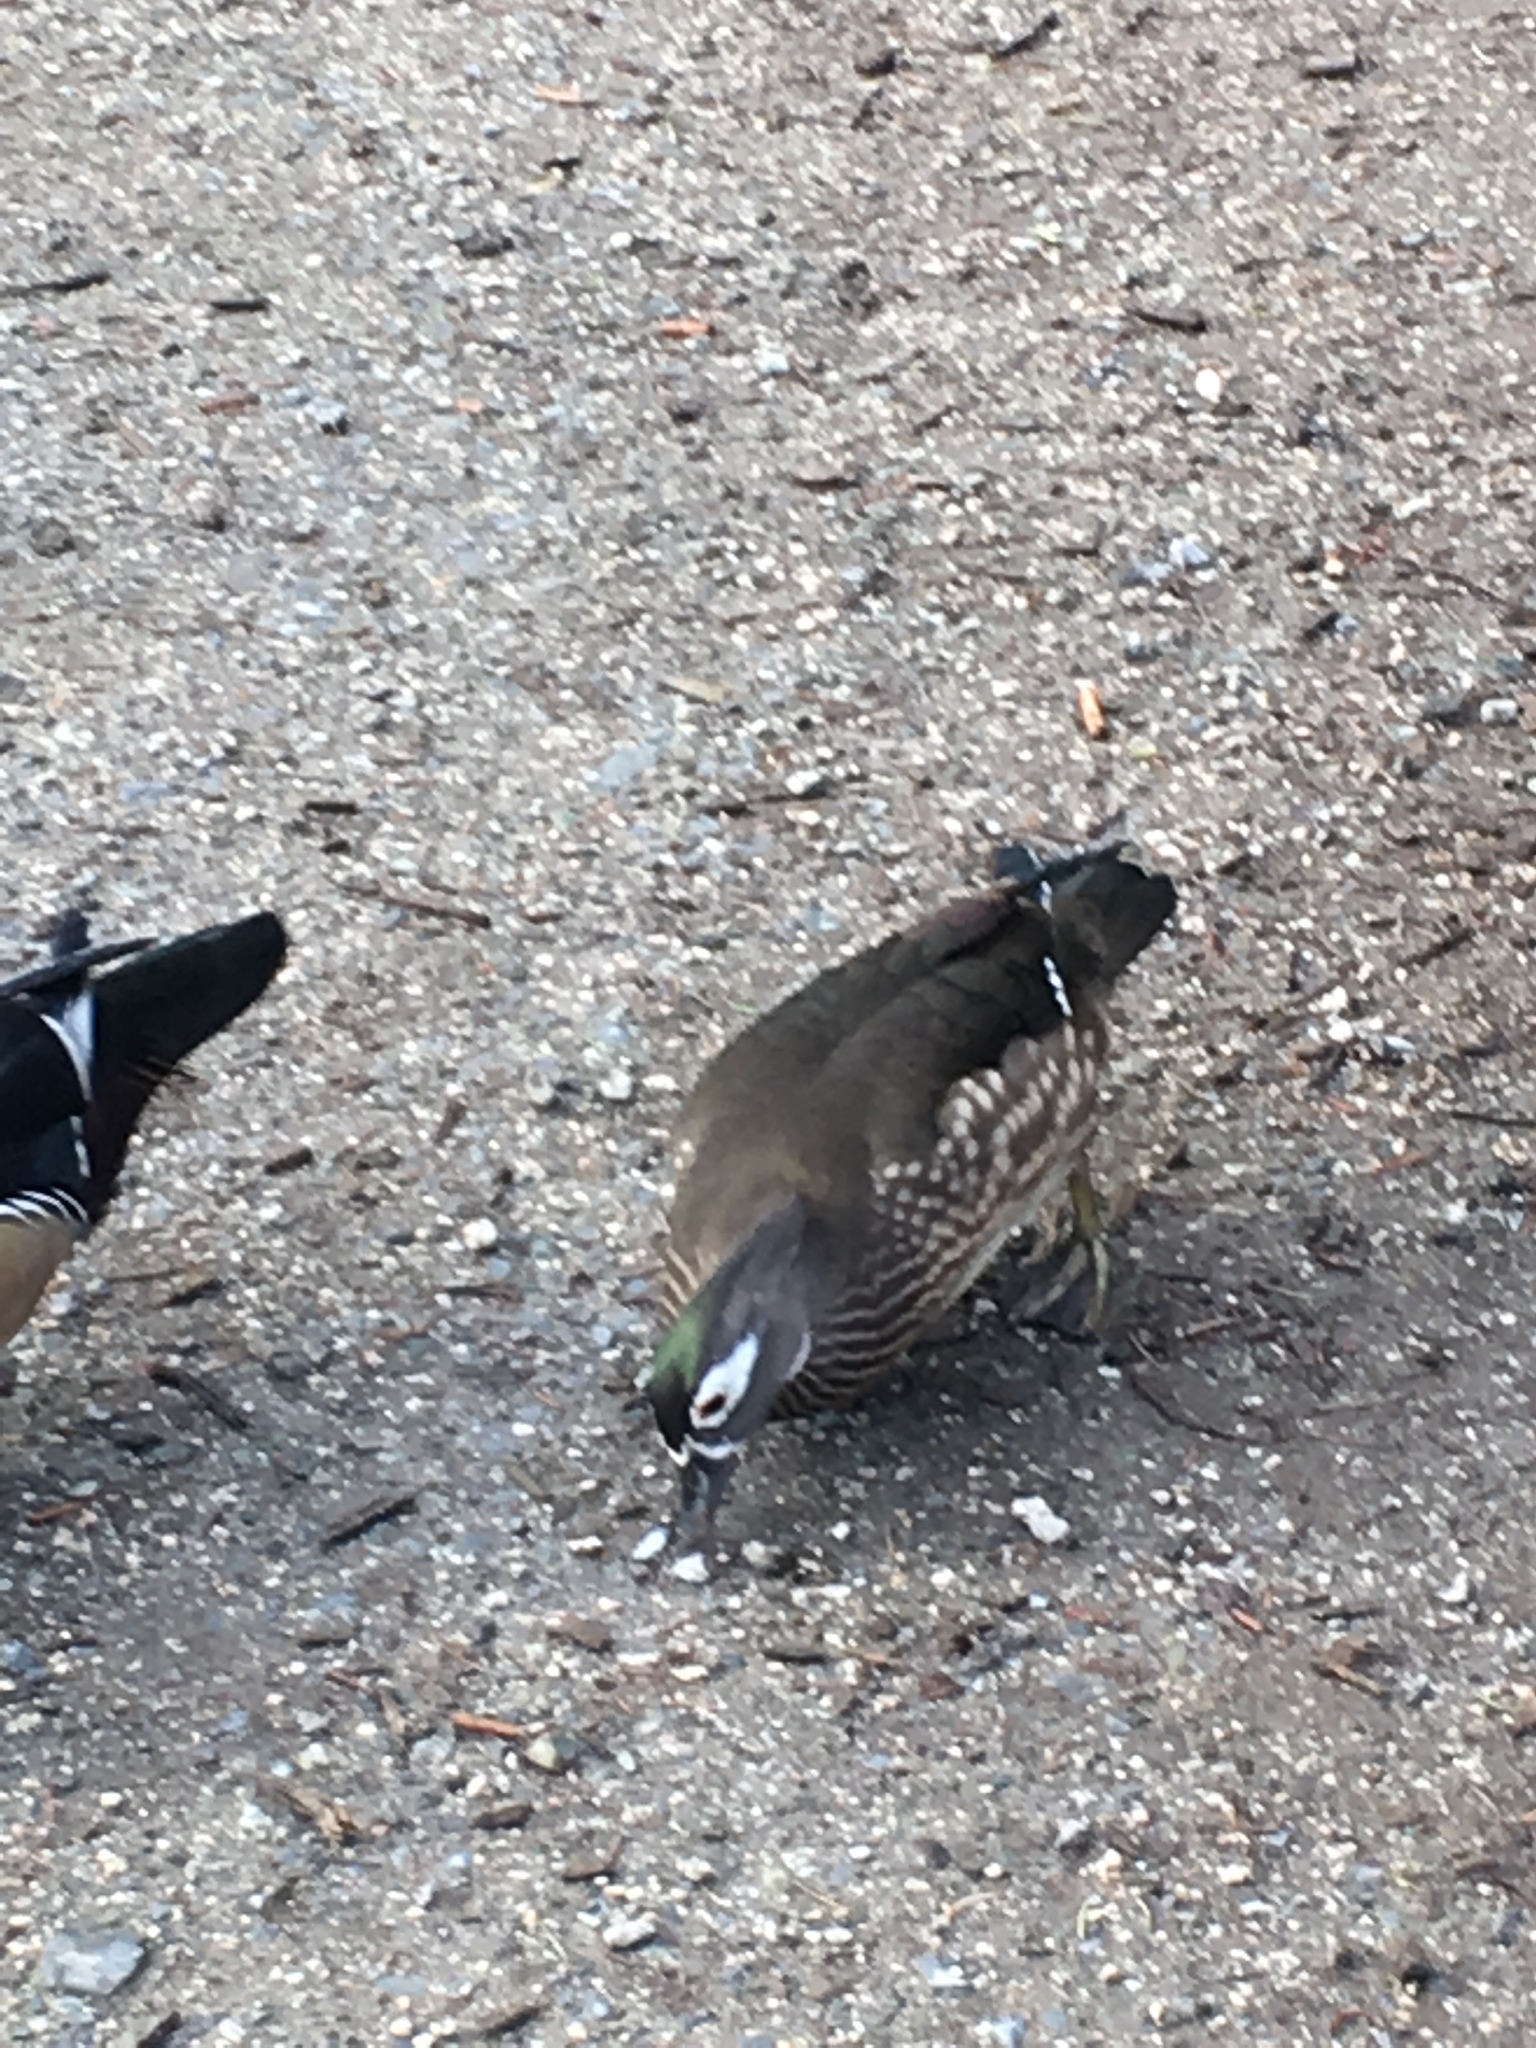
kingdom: Animalia
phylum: Chordata
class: Aves
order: Anseriformes
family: Anatidae
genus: Aix
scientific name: Aix sponsa
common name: Wood duck
